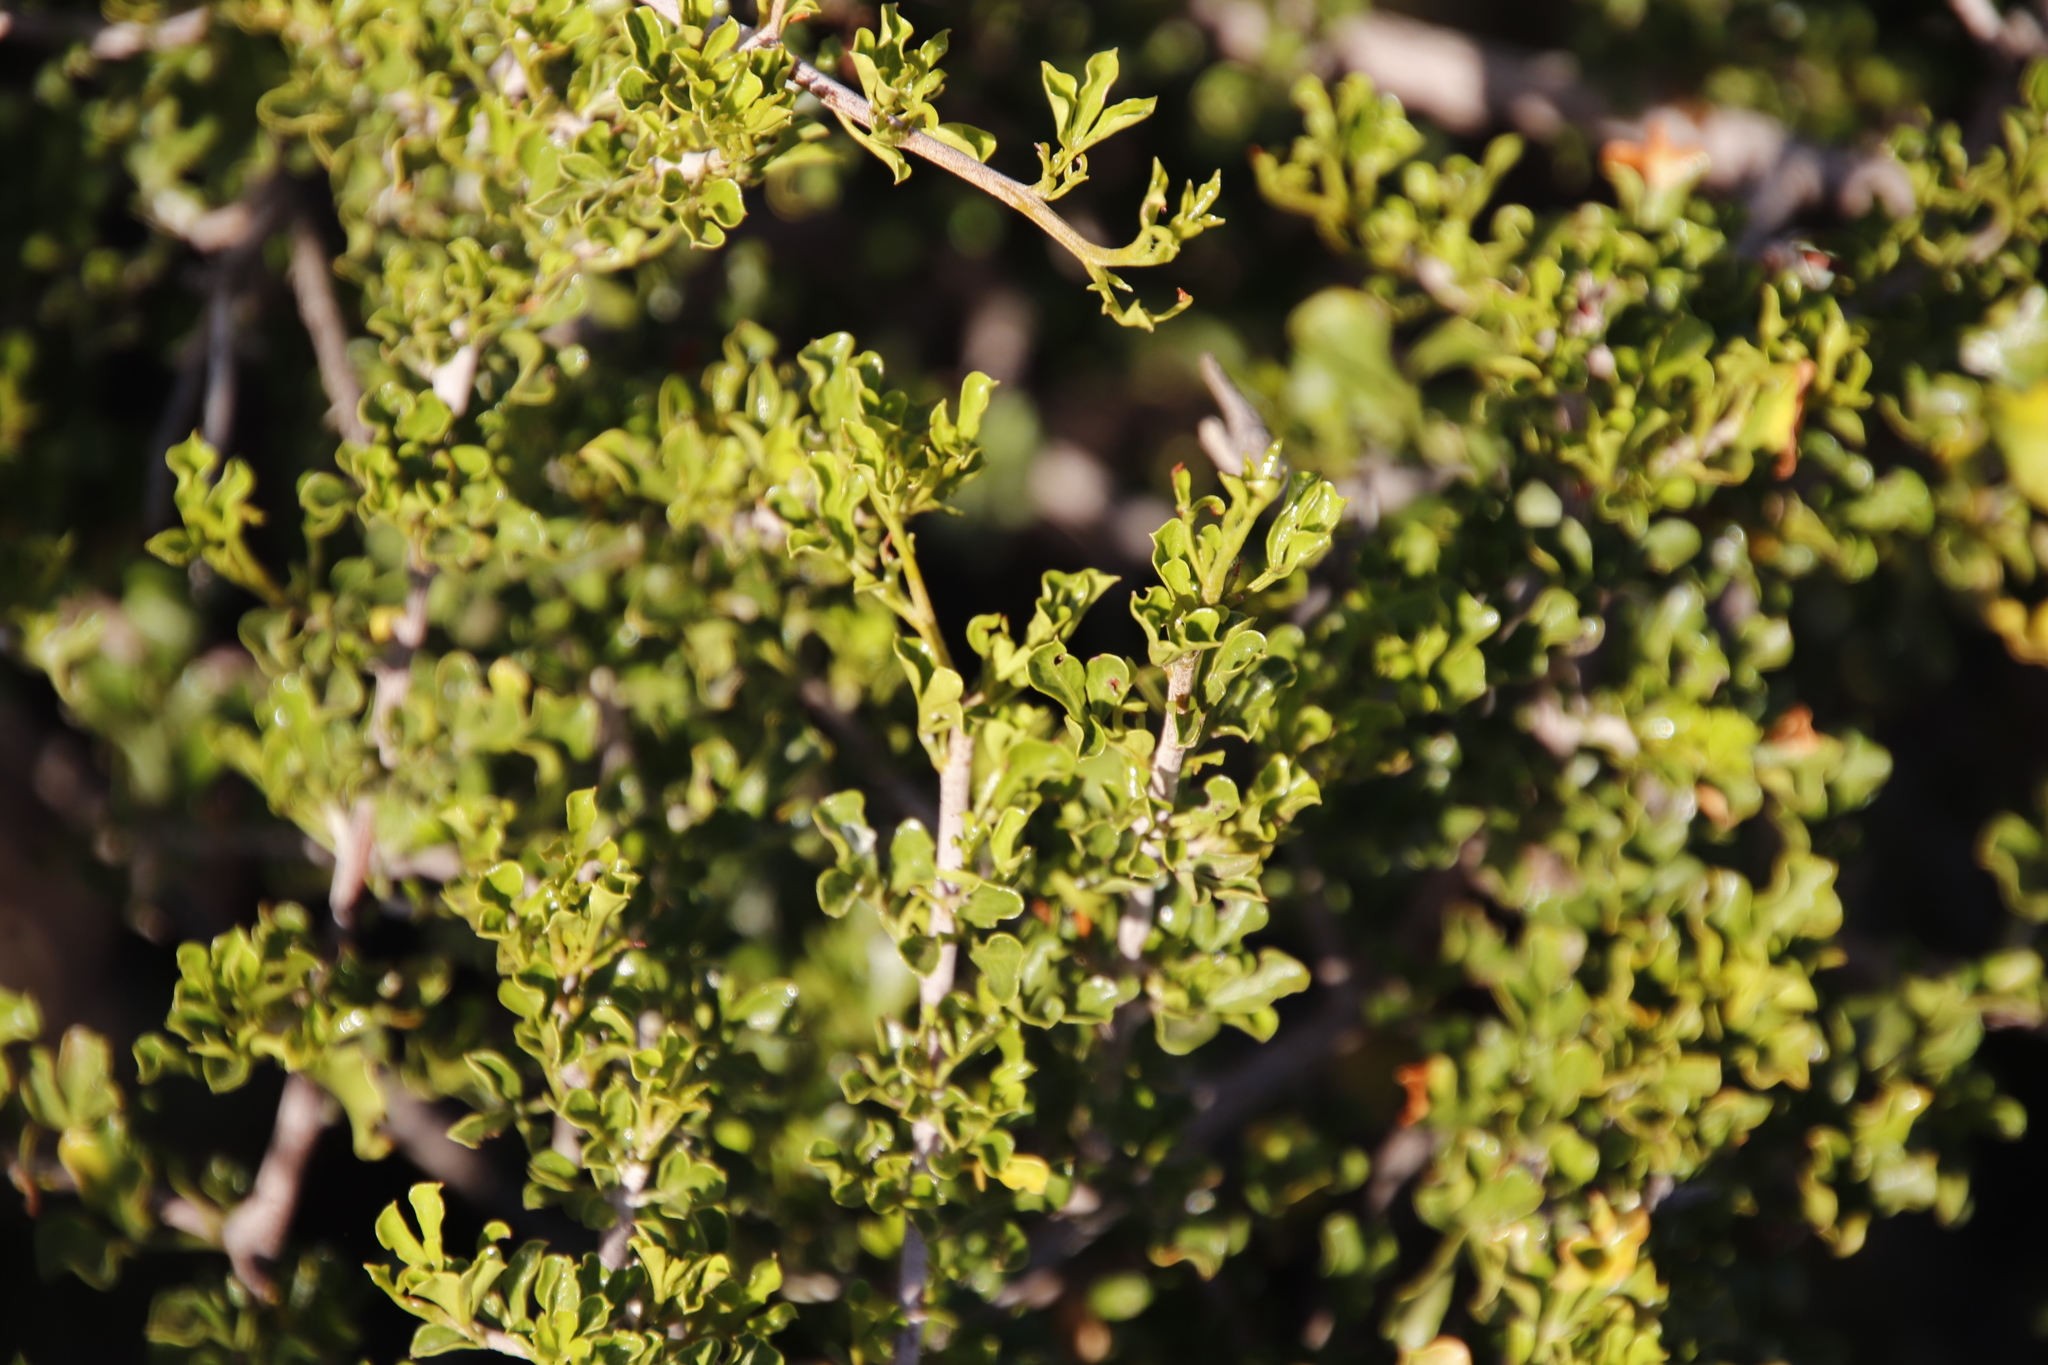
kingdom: Plantae
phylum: Tracheophyta
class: Magnoliopsida
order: Sapindales
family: Anacardiaceae
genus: Searsia
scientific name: Searsia burchellii
